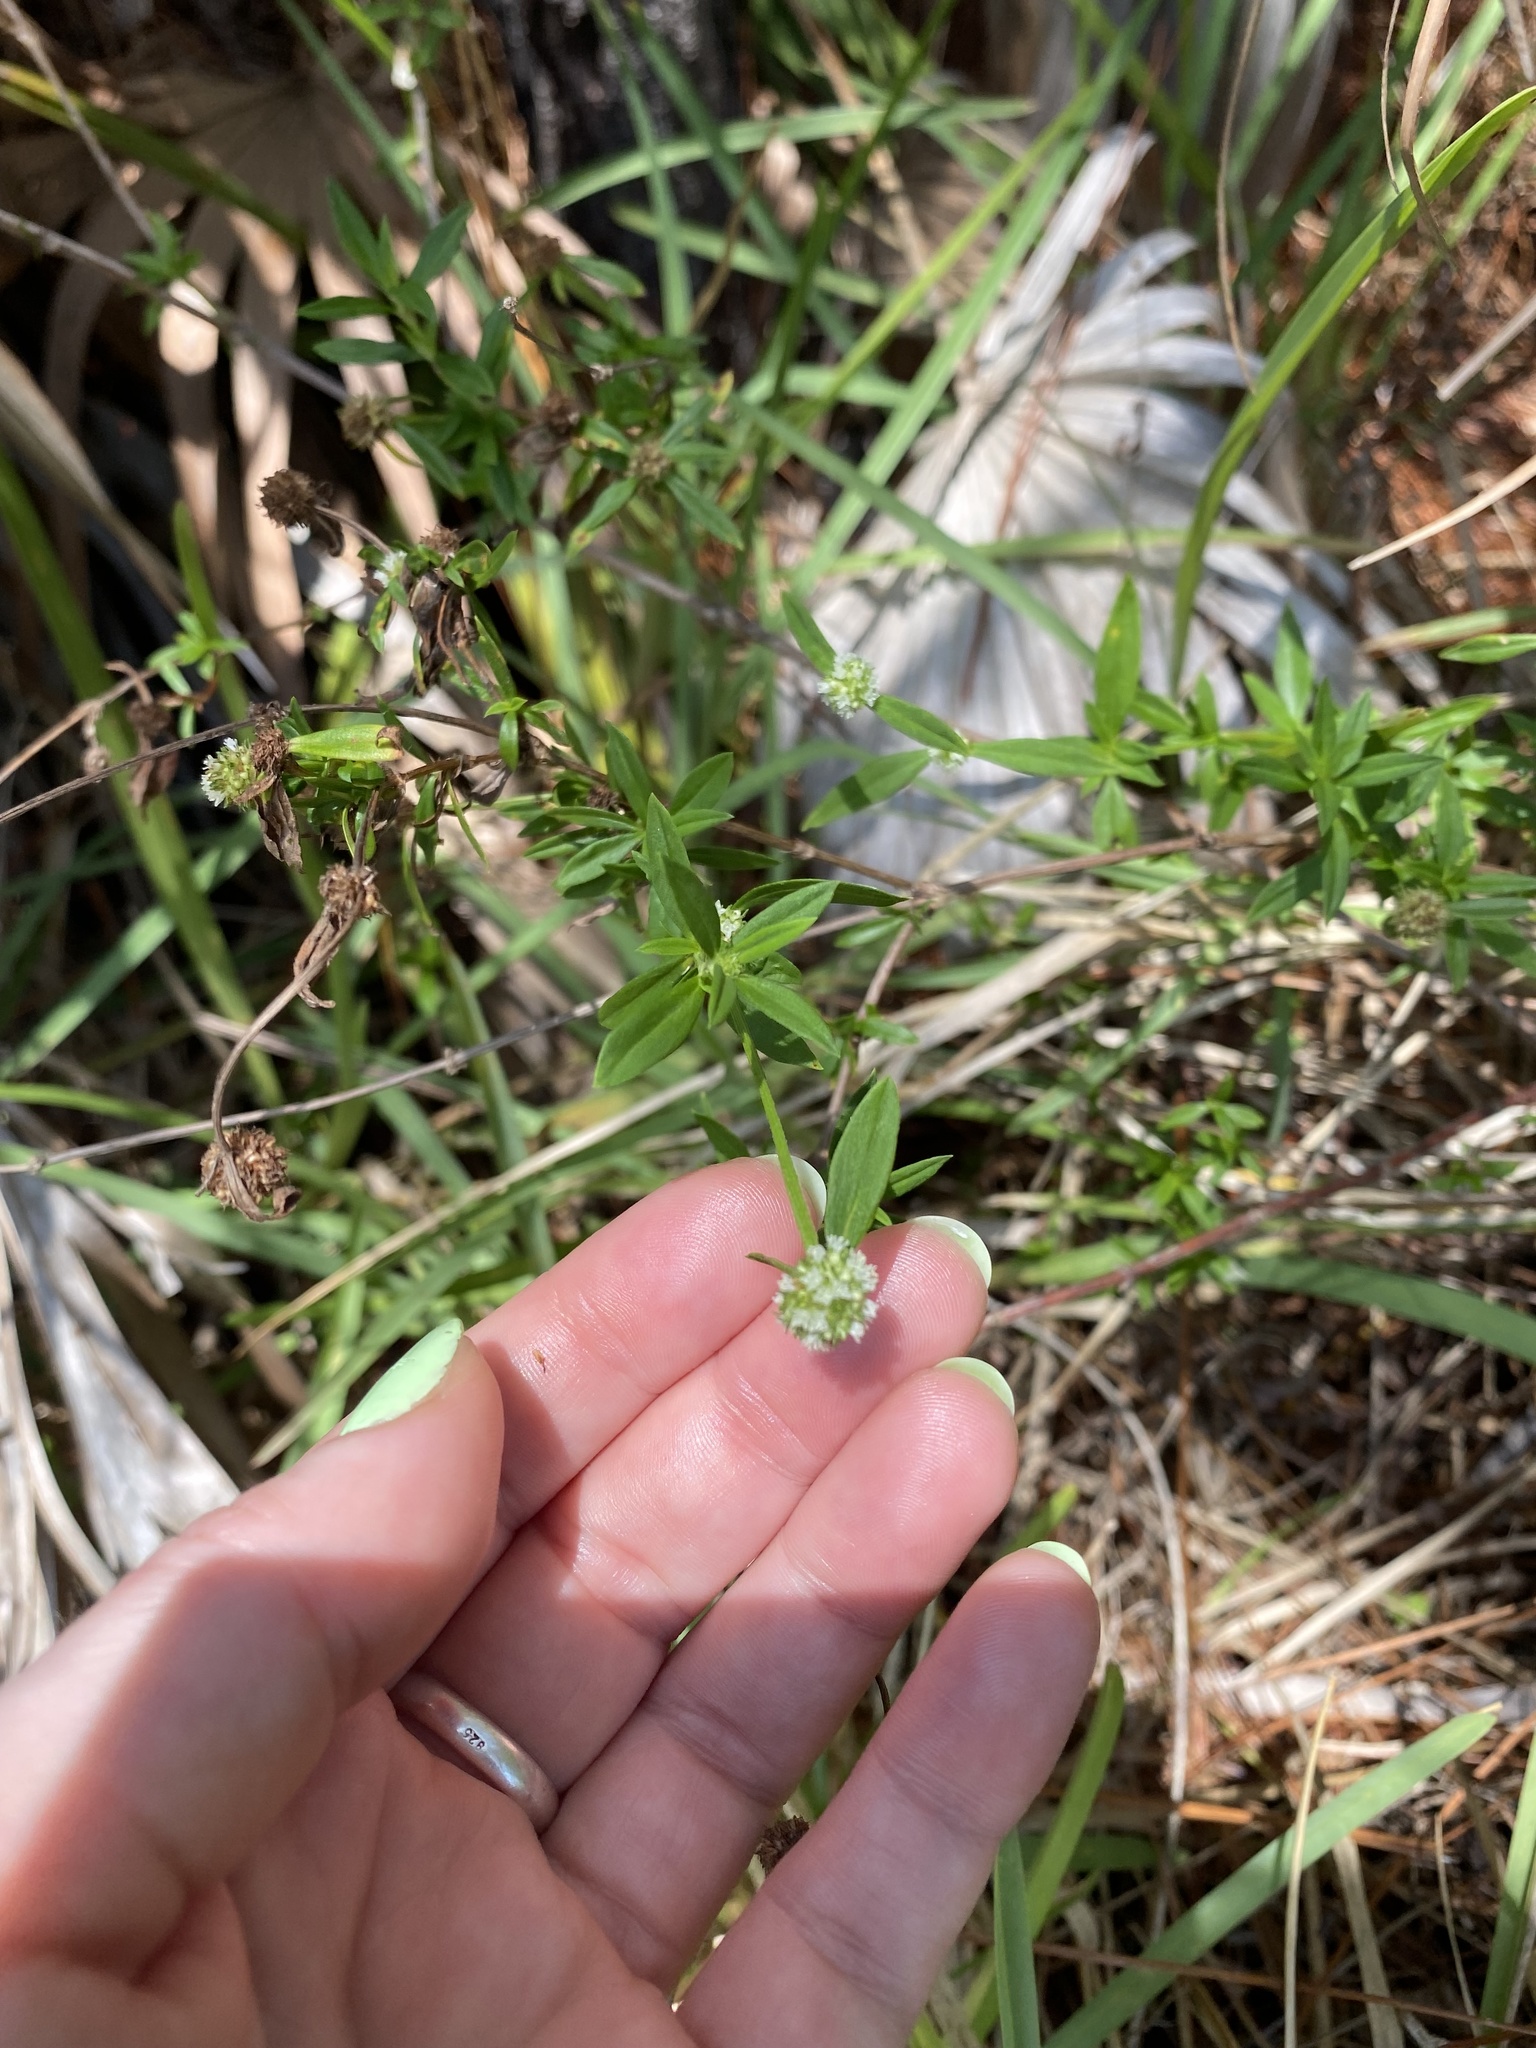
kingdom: Plantae
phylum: Tracheophyta
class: Magnoliopsida
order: Gentianales
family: Rubiaceae
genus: Spermacoce
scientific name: Spermacoce verticillata
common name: Shrubby false buttonweed
